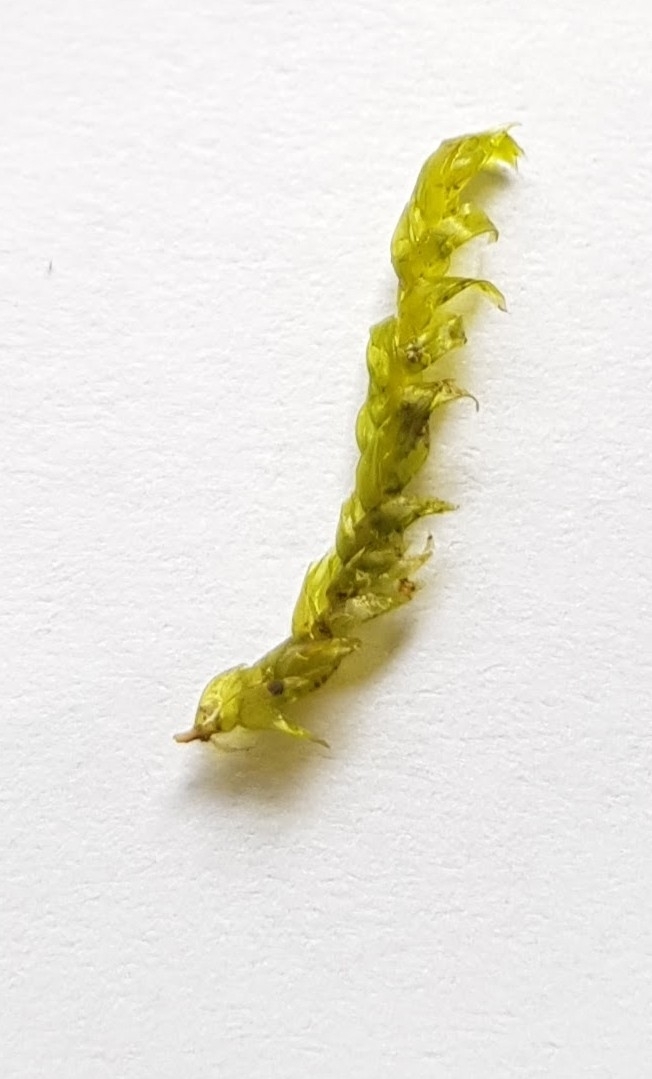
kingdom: Plantae
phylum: Bryophyta
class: Bryopsida
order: Hypnales
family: Scorpidiaceae
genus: Hygrohypnella
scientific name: Hygrohypnella ochracea
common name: Hygrohypnum moss
